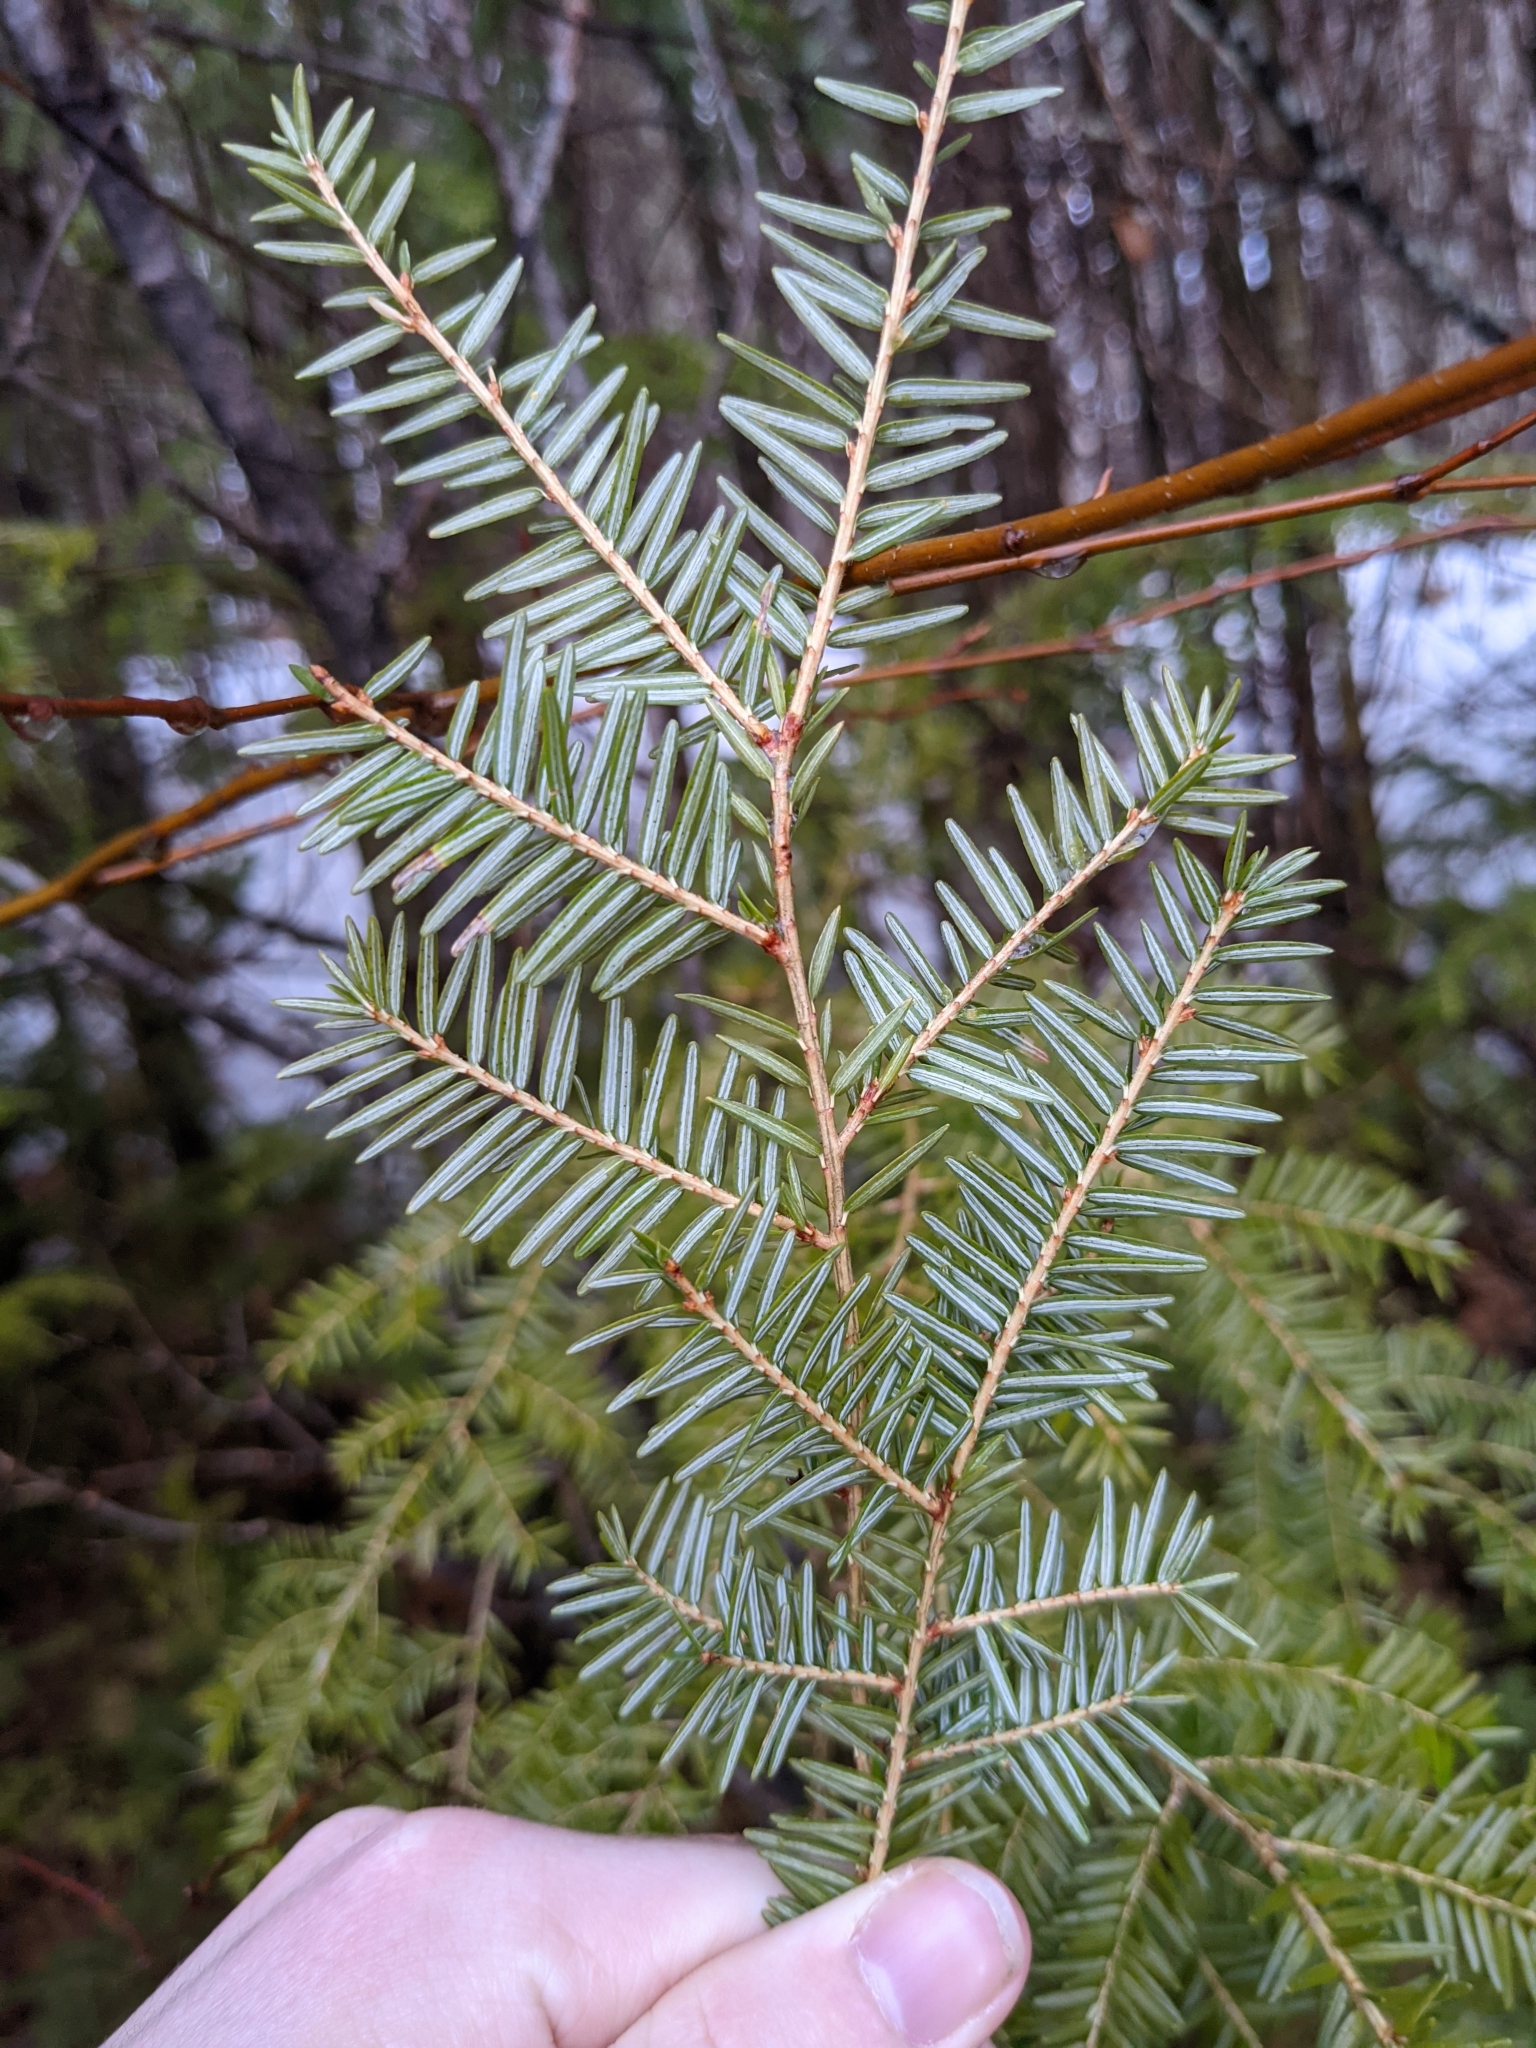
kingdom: Plantae
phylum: Tracheophyta
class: Pinopsida
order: Pinales
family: Pinaceae
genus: Tsuga
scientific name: Tsuga canadensis
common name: Eastern hemlock
